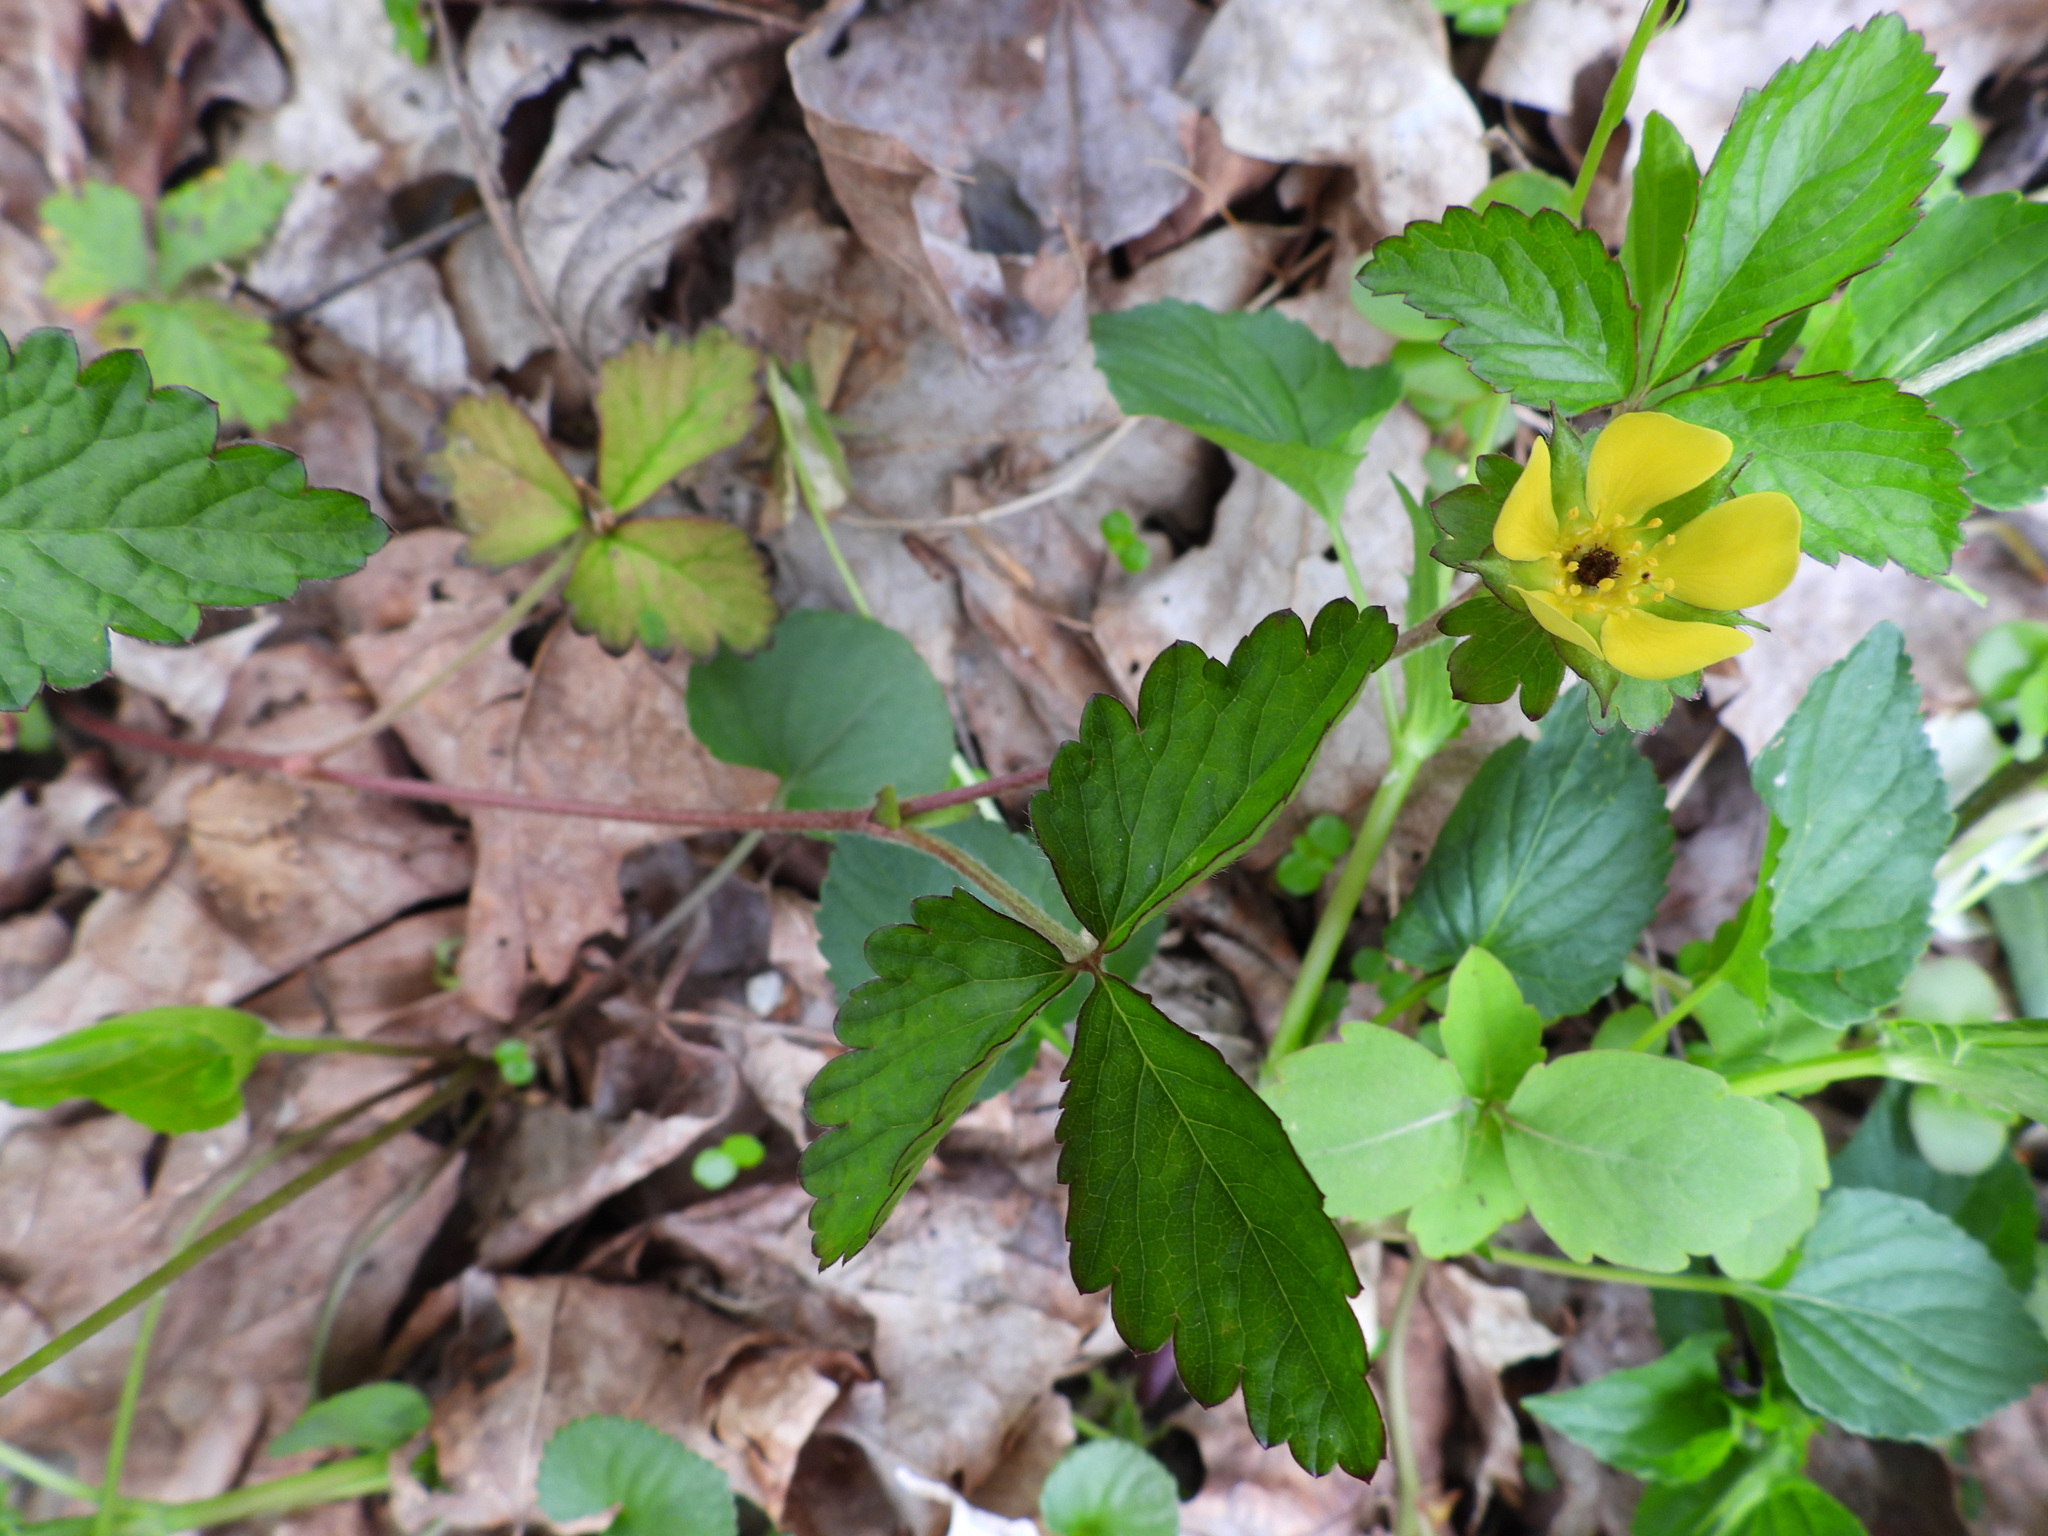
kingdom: Plantae
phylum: Tracheophyta
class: Magnoliopsida
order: Rosales
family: Rosaceae
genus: Potentilla
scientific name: Potentilla indica
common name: Yellow-flowered strawberry
